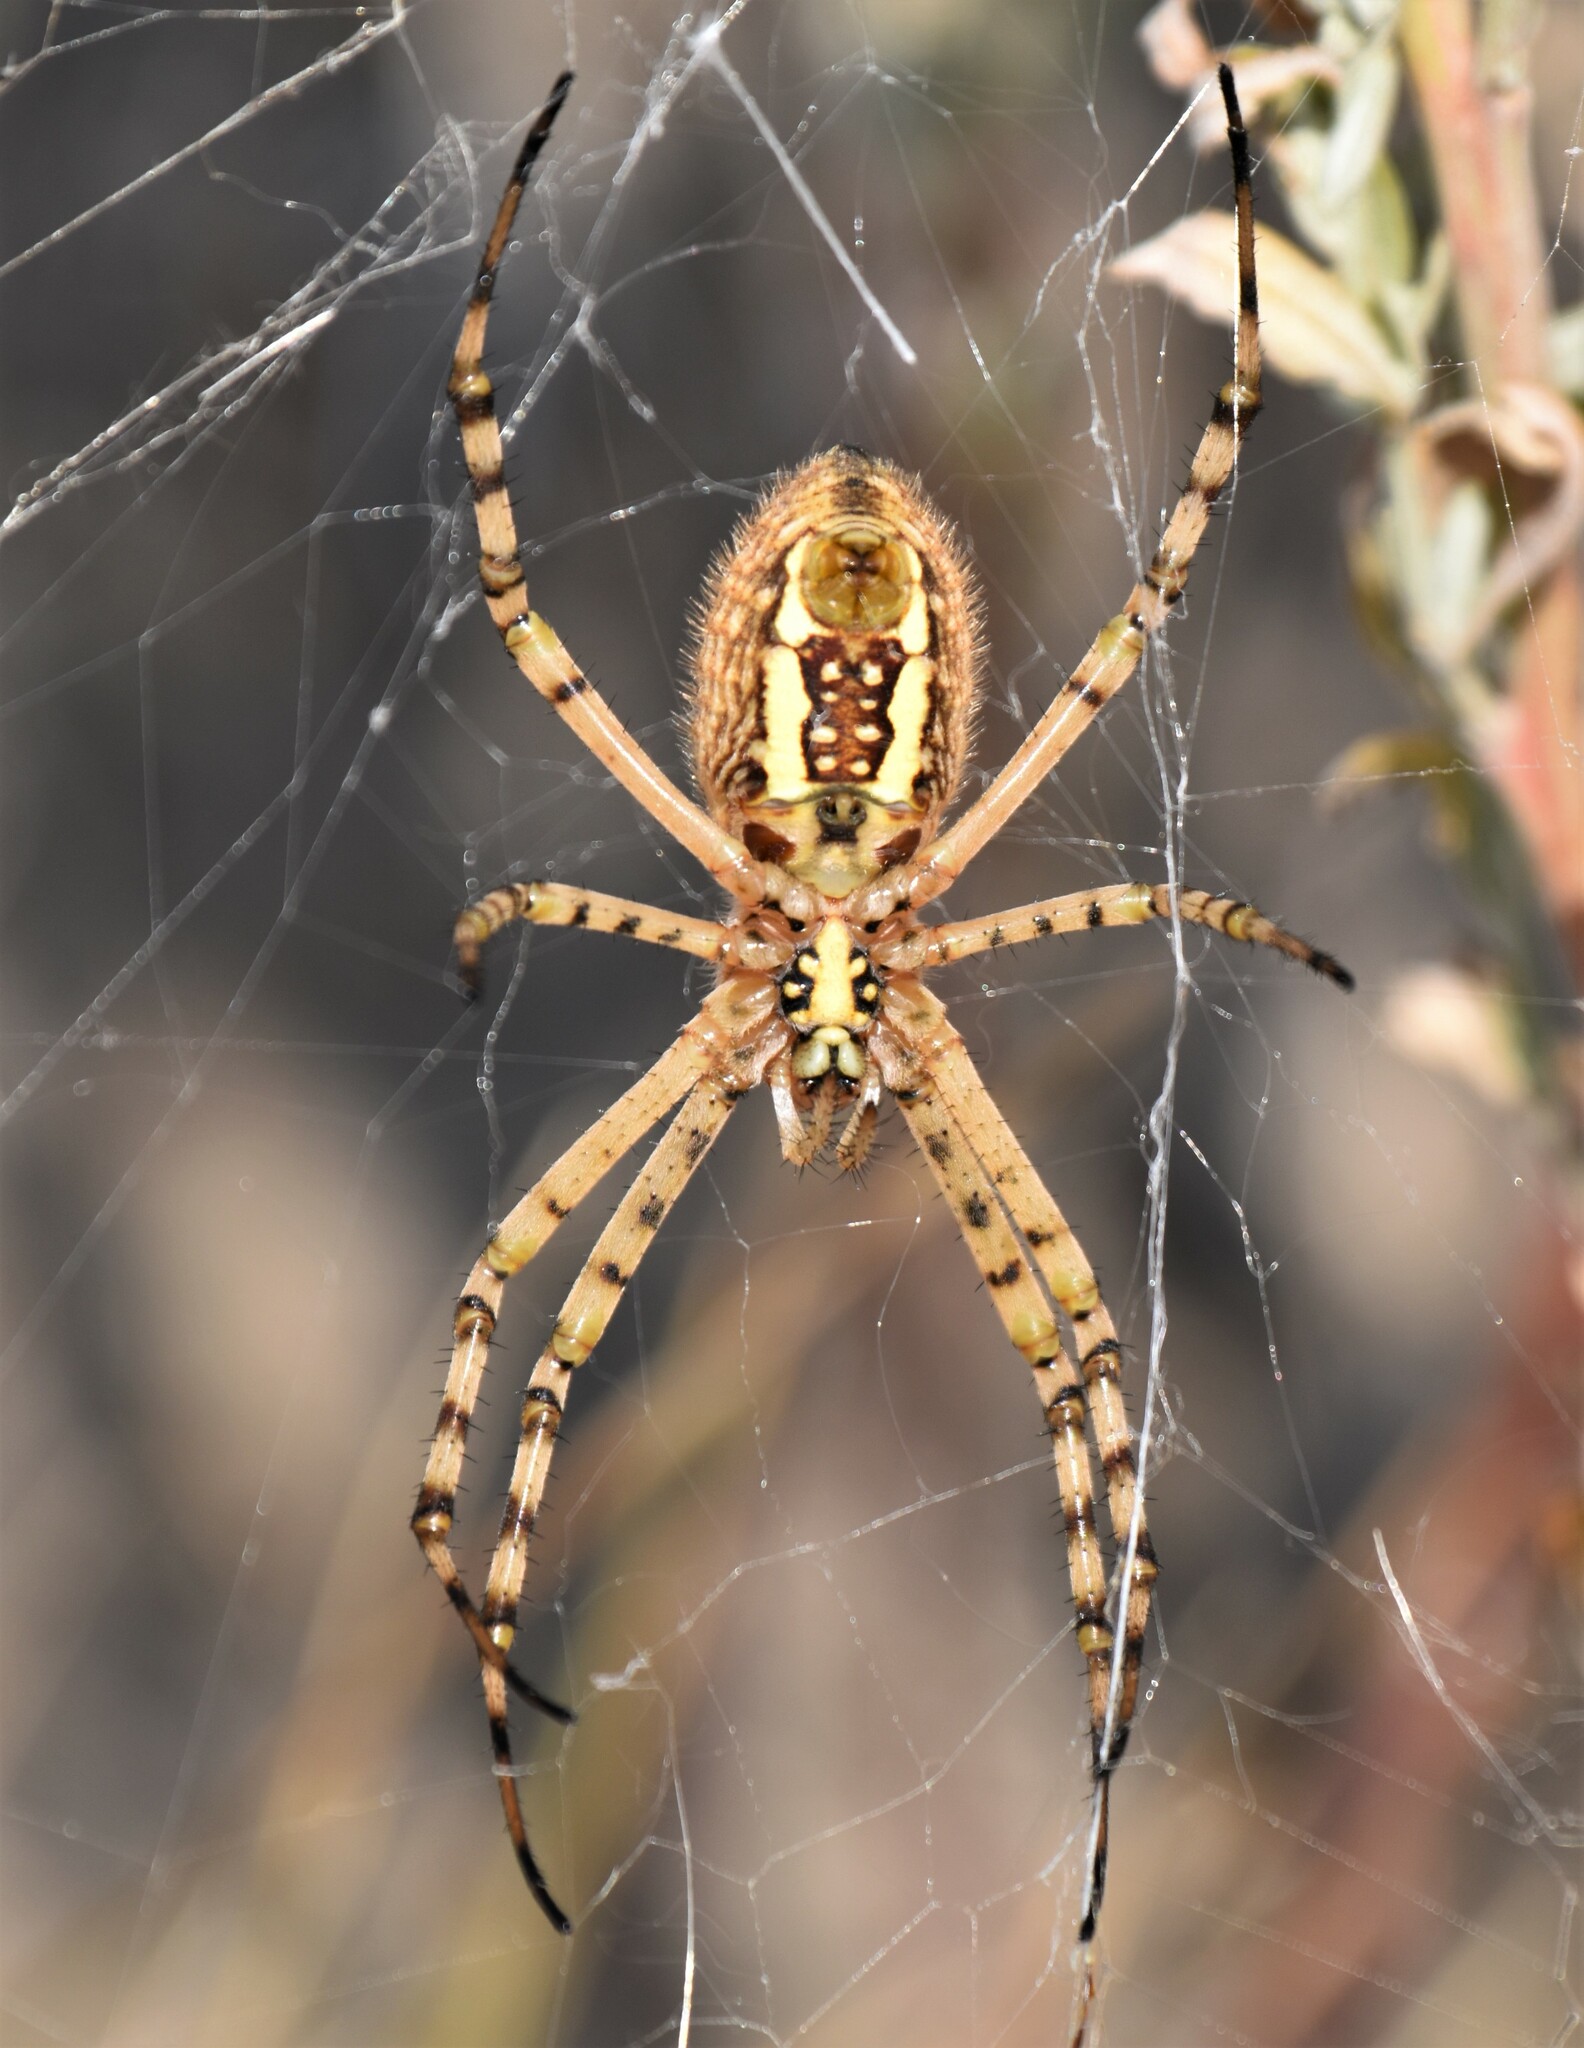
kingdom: Animalia
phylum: Arthropoda
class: Arachnida
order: Araneae
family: Araneidae
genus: Argiope
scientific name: Argiope trifasciata
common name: Banded garden spider
